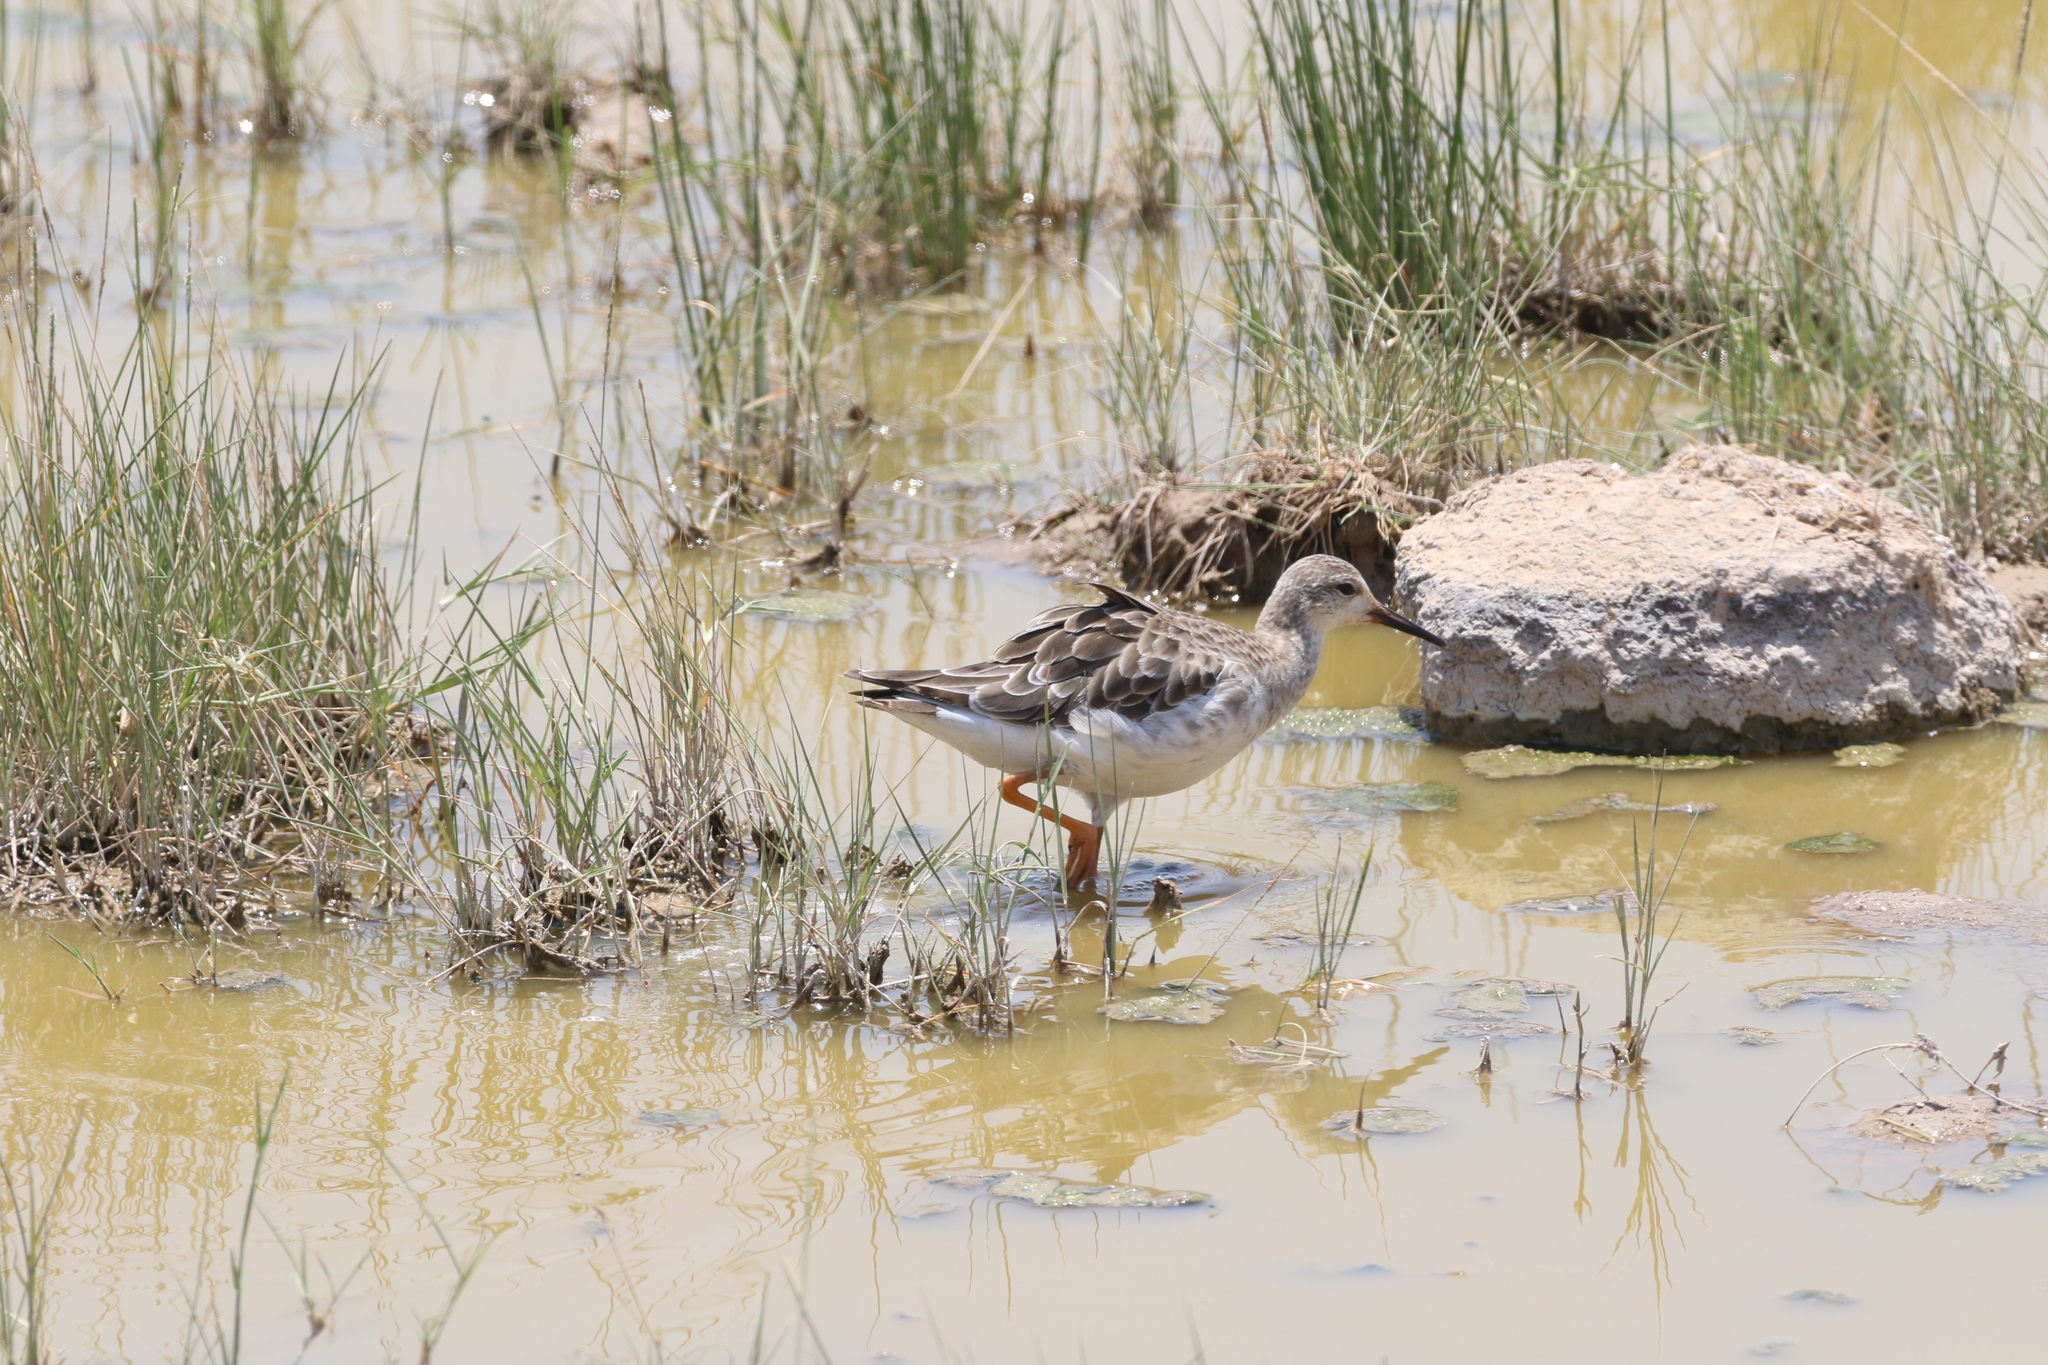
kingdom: Animalia
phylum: Chordata
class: Aves
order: Charadriiformes
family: Scolopacidae
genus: Calidris
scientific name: Calidris pugnax
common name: Ruff
